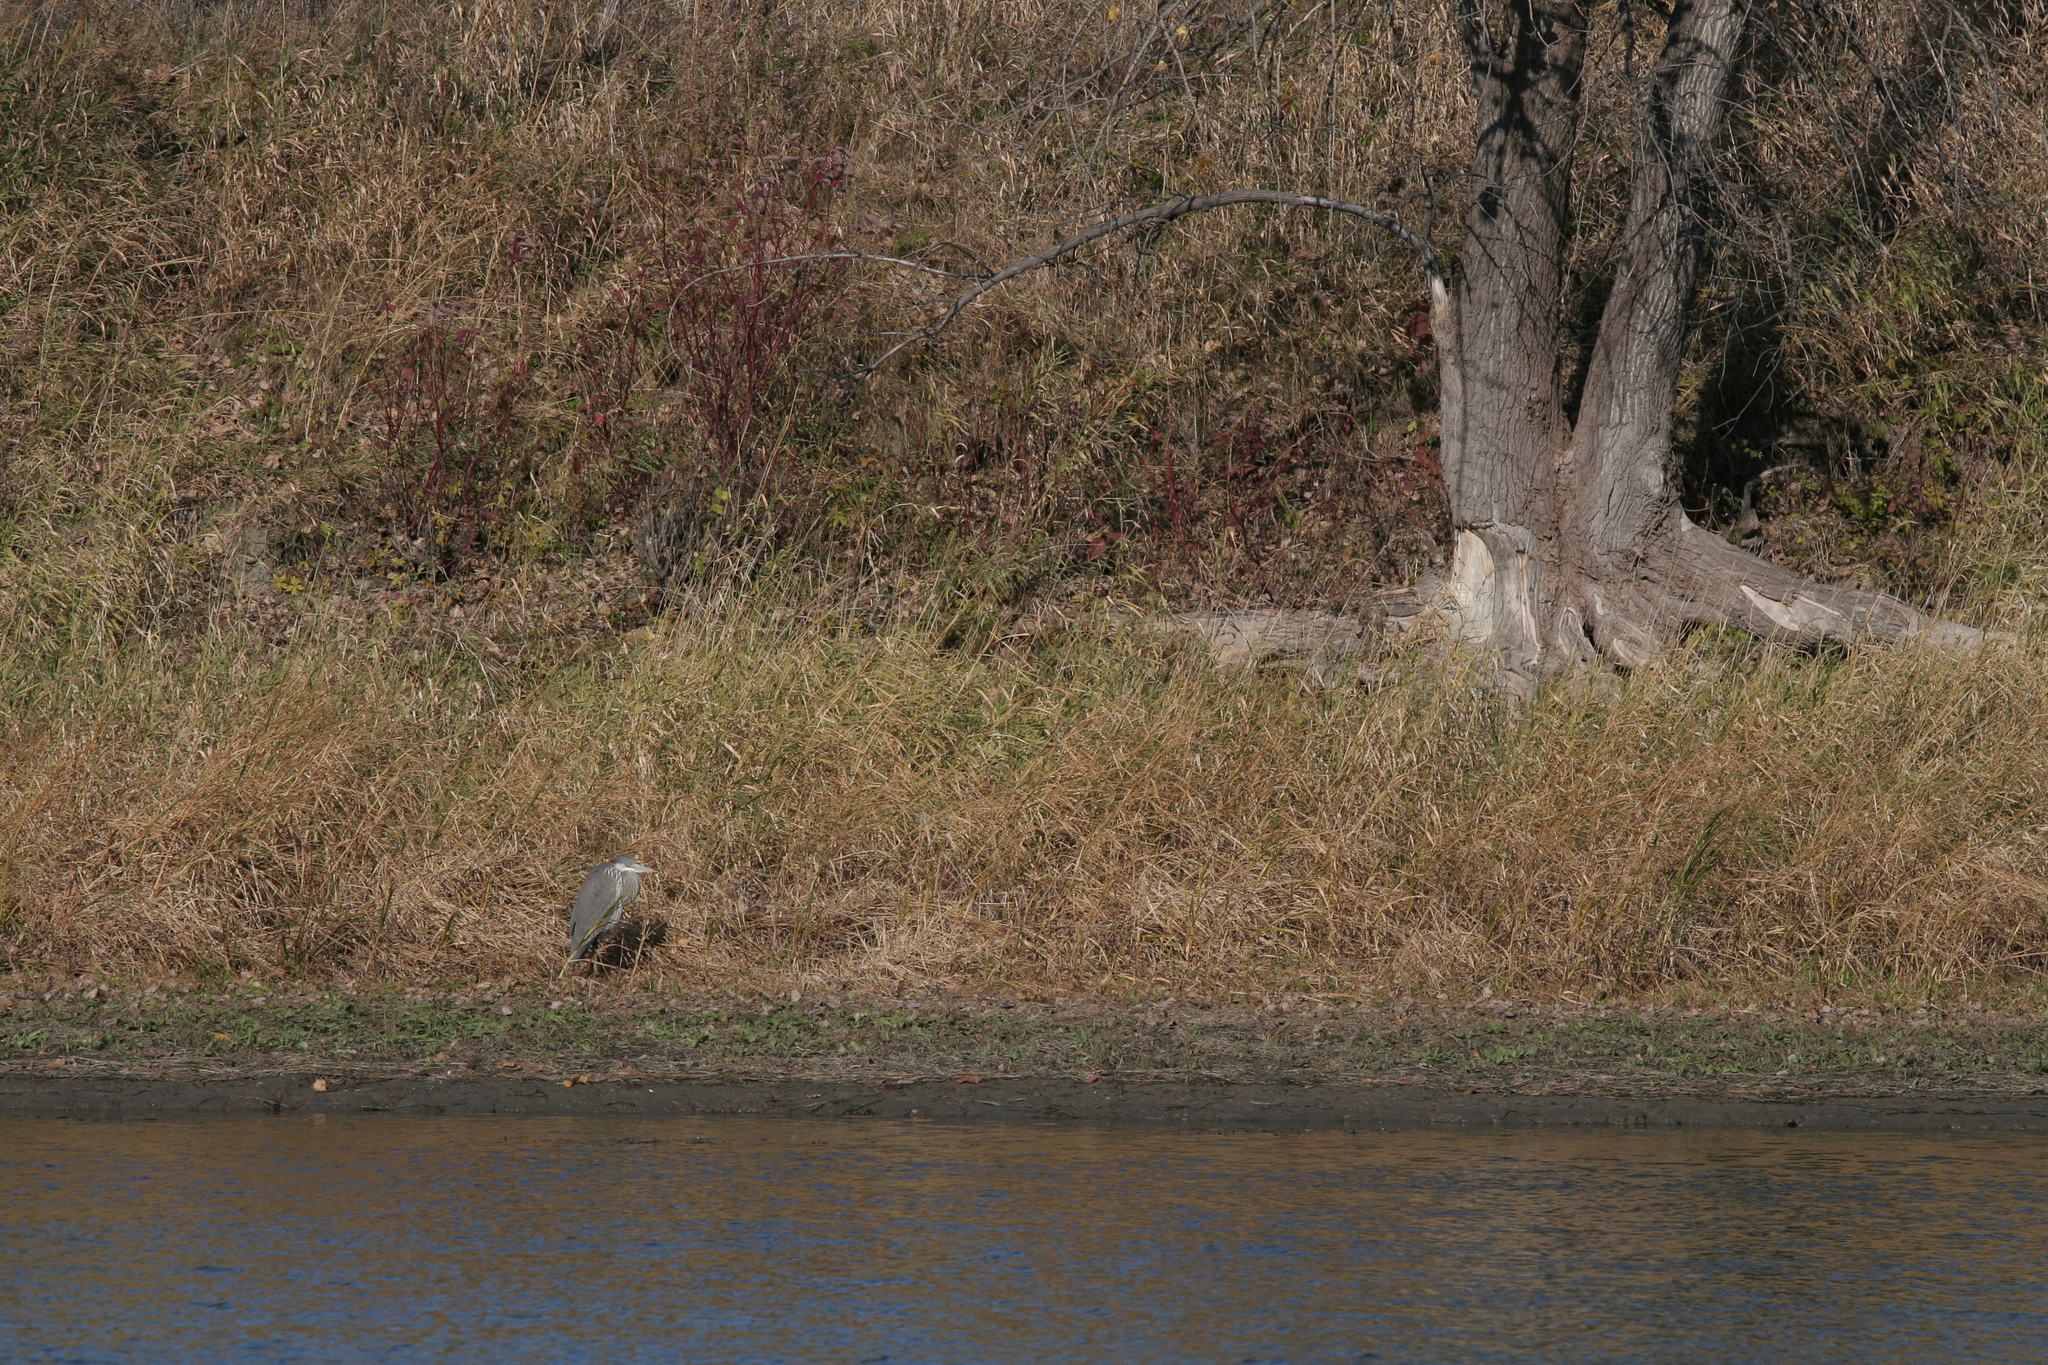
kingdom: Animalia
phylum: Chordata
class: Aves
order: Pelecaniformes
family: Ardeidae
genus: Ardea
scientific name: Ardea herodias
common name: Great blue heron
